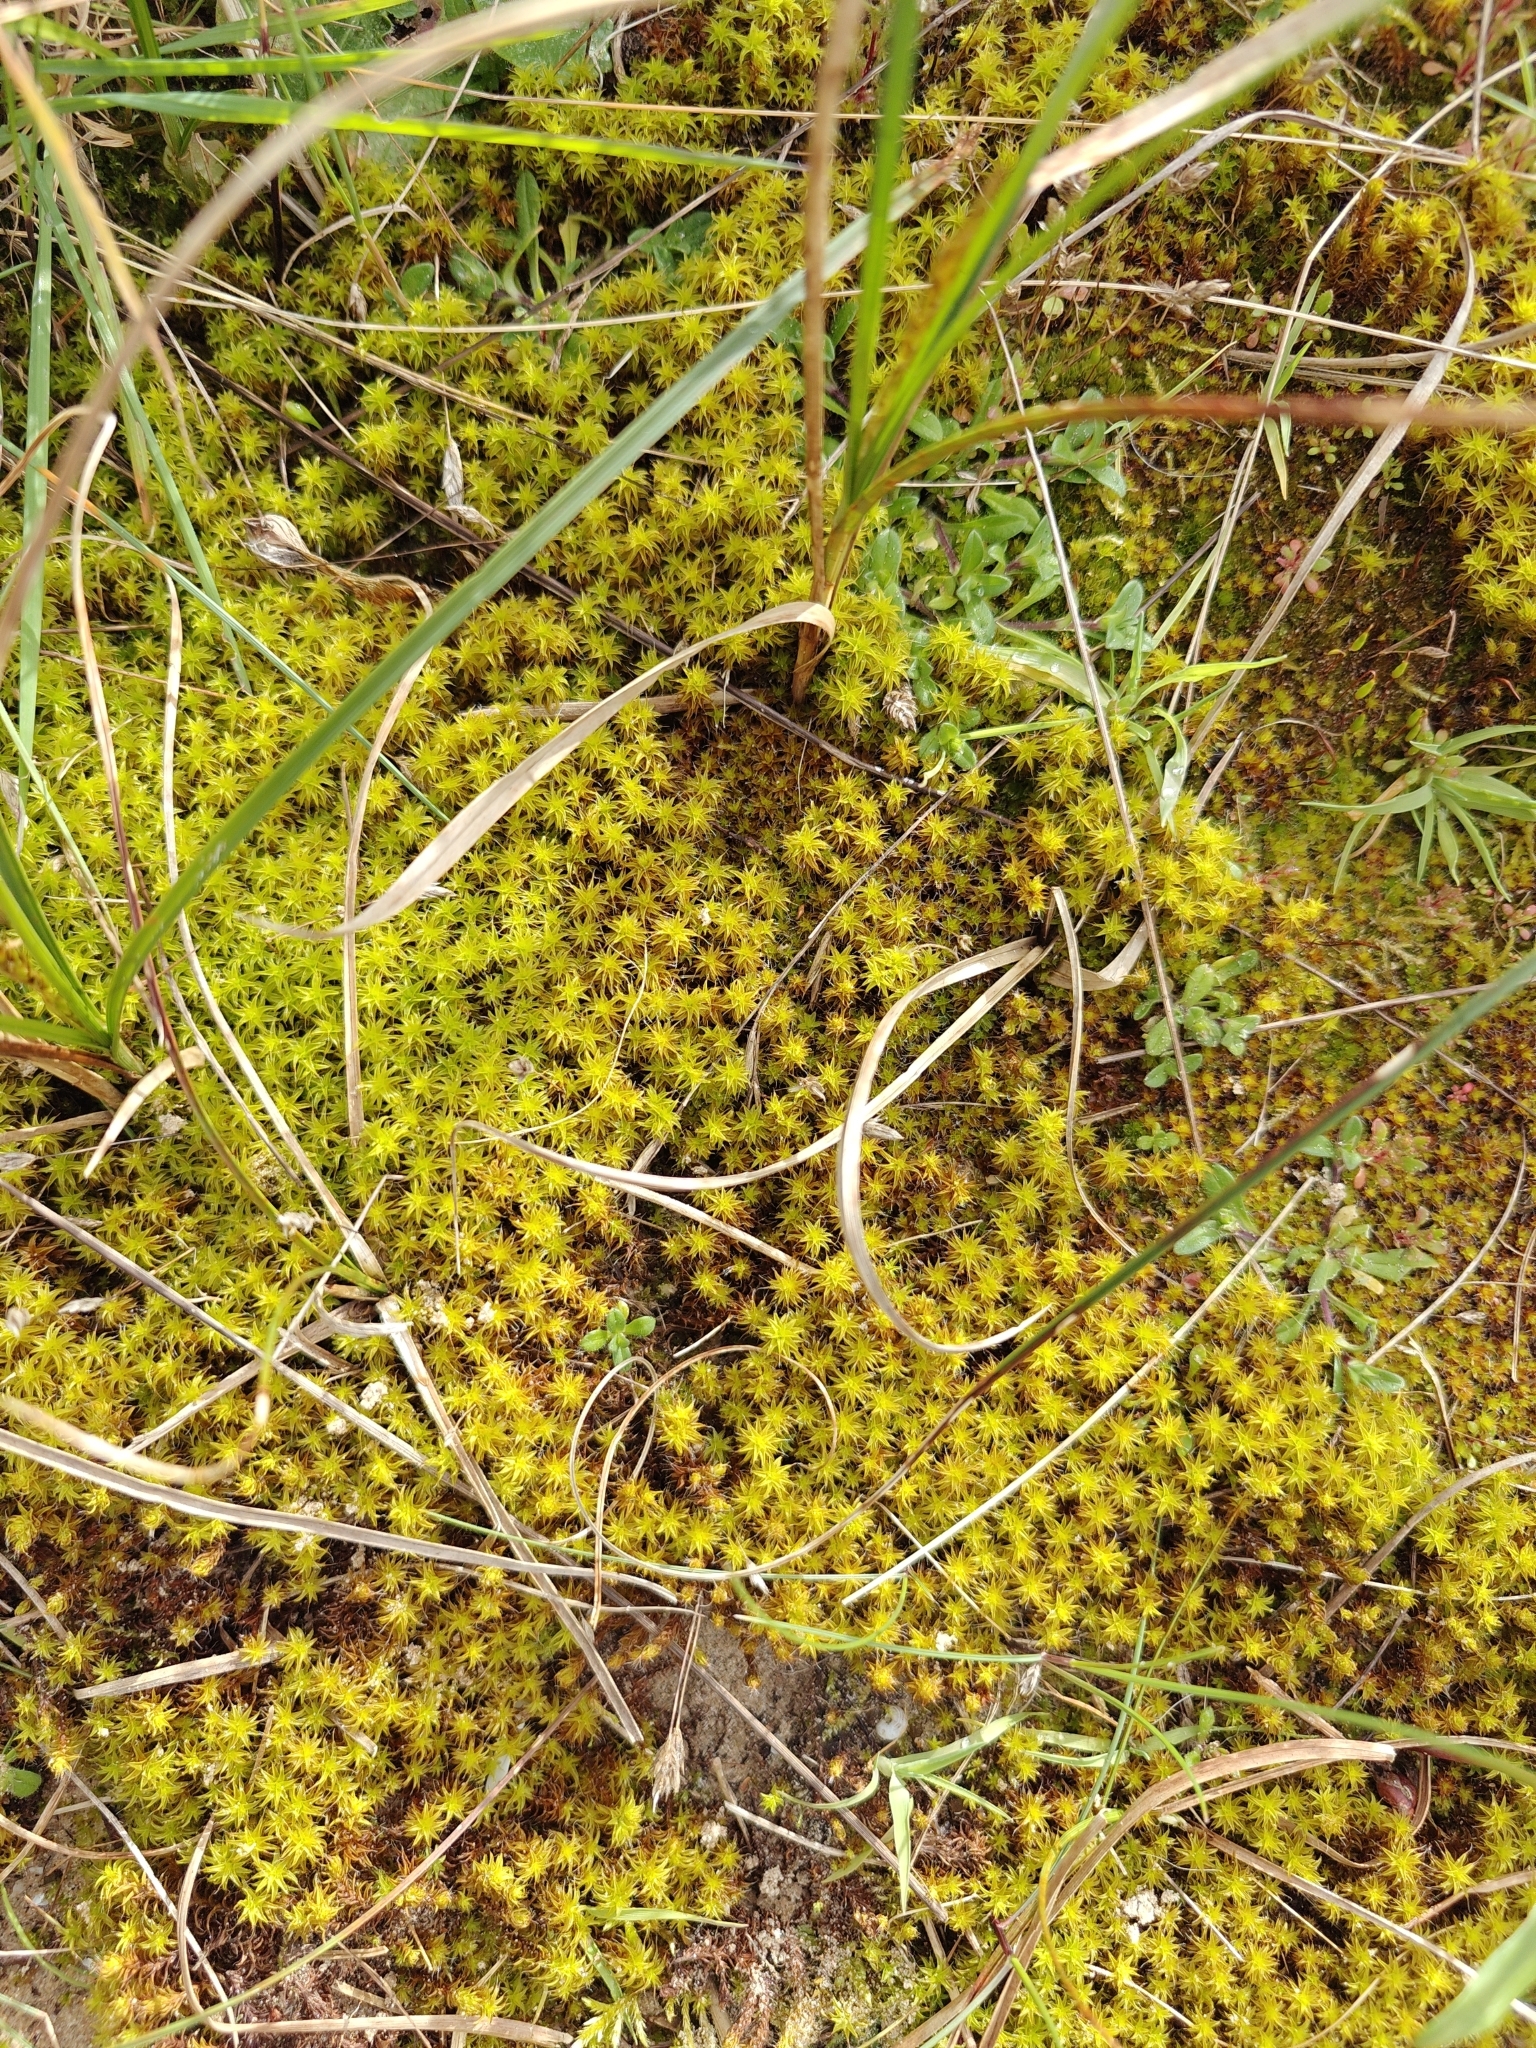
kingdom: Plantae
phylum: Bryophyta
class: Bryopsida
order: Pottiales
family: Pottiaceae
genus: Syntrichia
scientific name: Syntrichia ruralis
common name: Sidewalk screw moss
